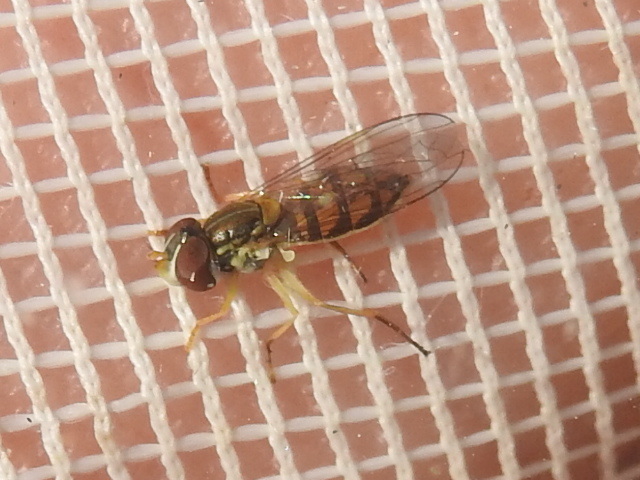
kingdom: Animalia
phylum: Arthropoda
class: Insecta
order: Diptera
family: Syrphidae
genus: Toxomerus
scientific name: Toxomerus marginatus
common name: Syrphid fly
